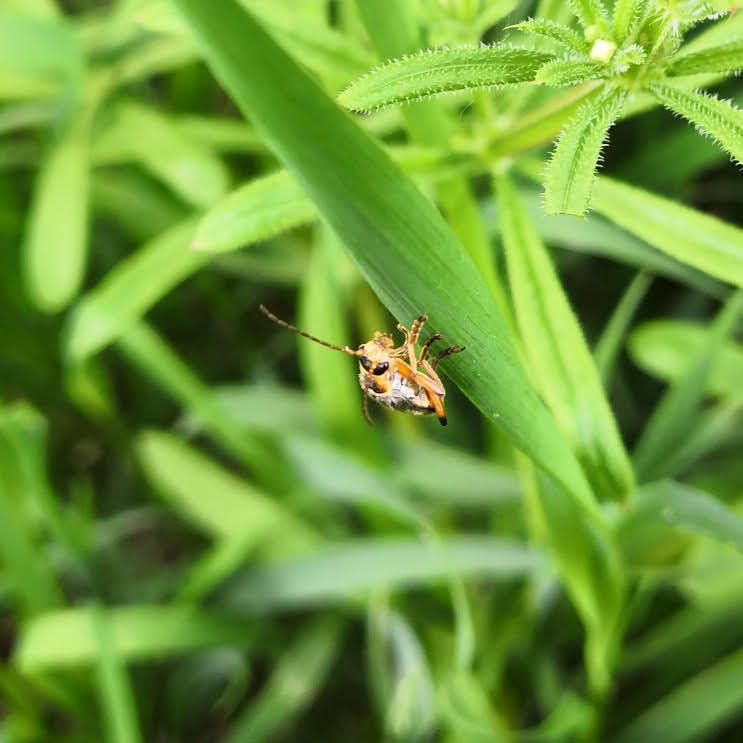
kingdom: Animalia
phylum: Arthropoda
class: Insecta
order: Coleoptera
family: Cantharidae
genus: Cantharis
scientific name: Cantharis nigricans
